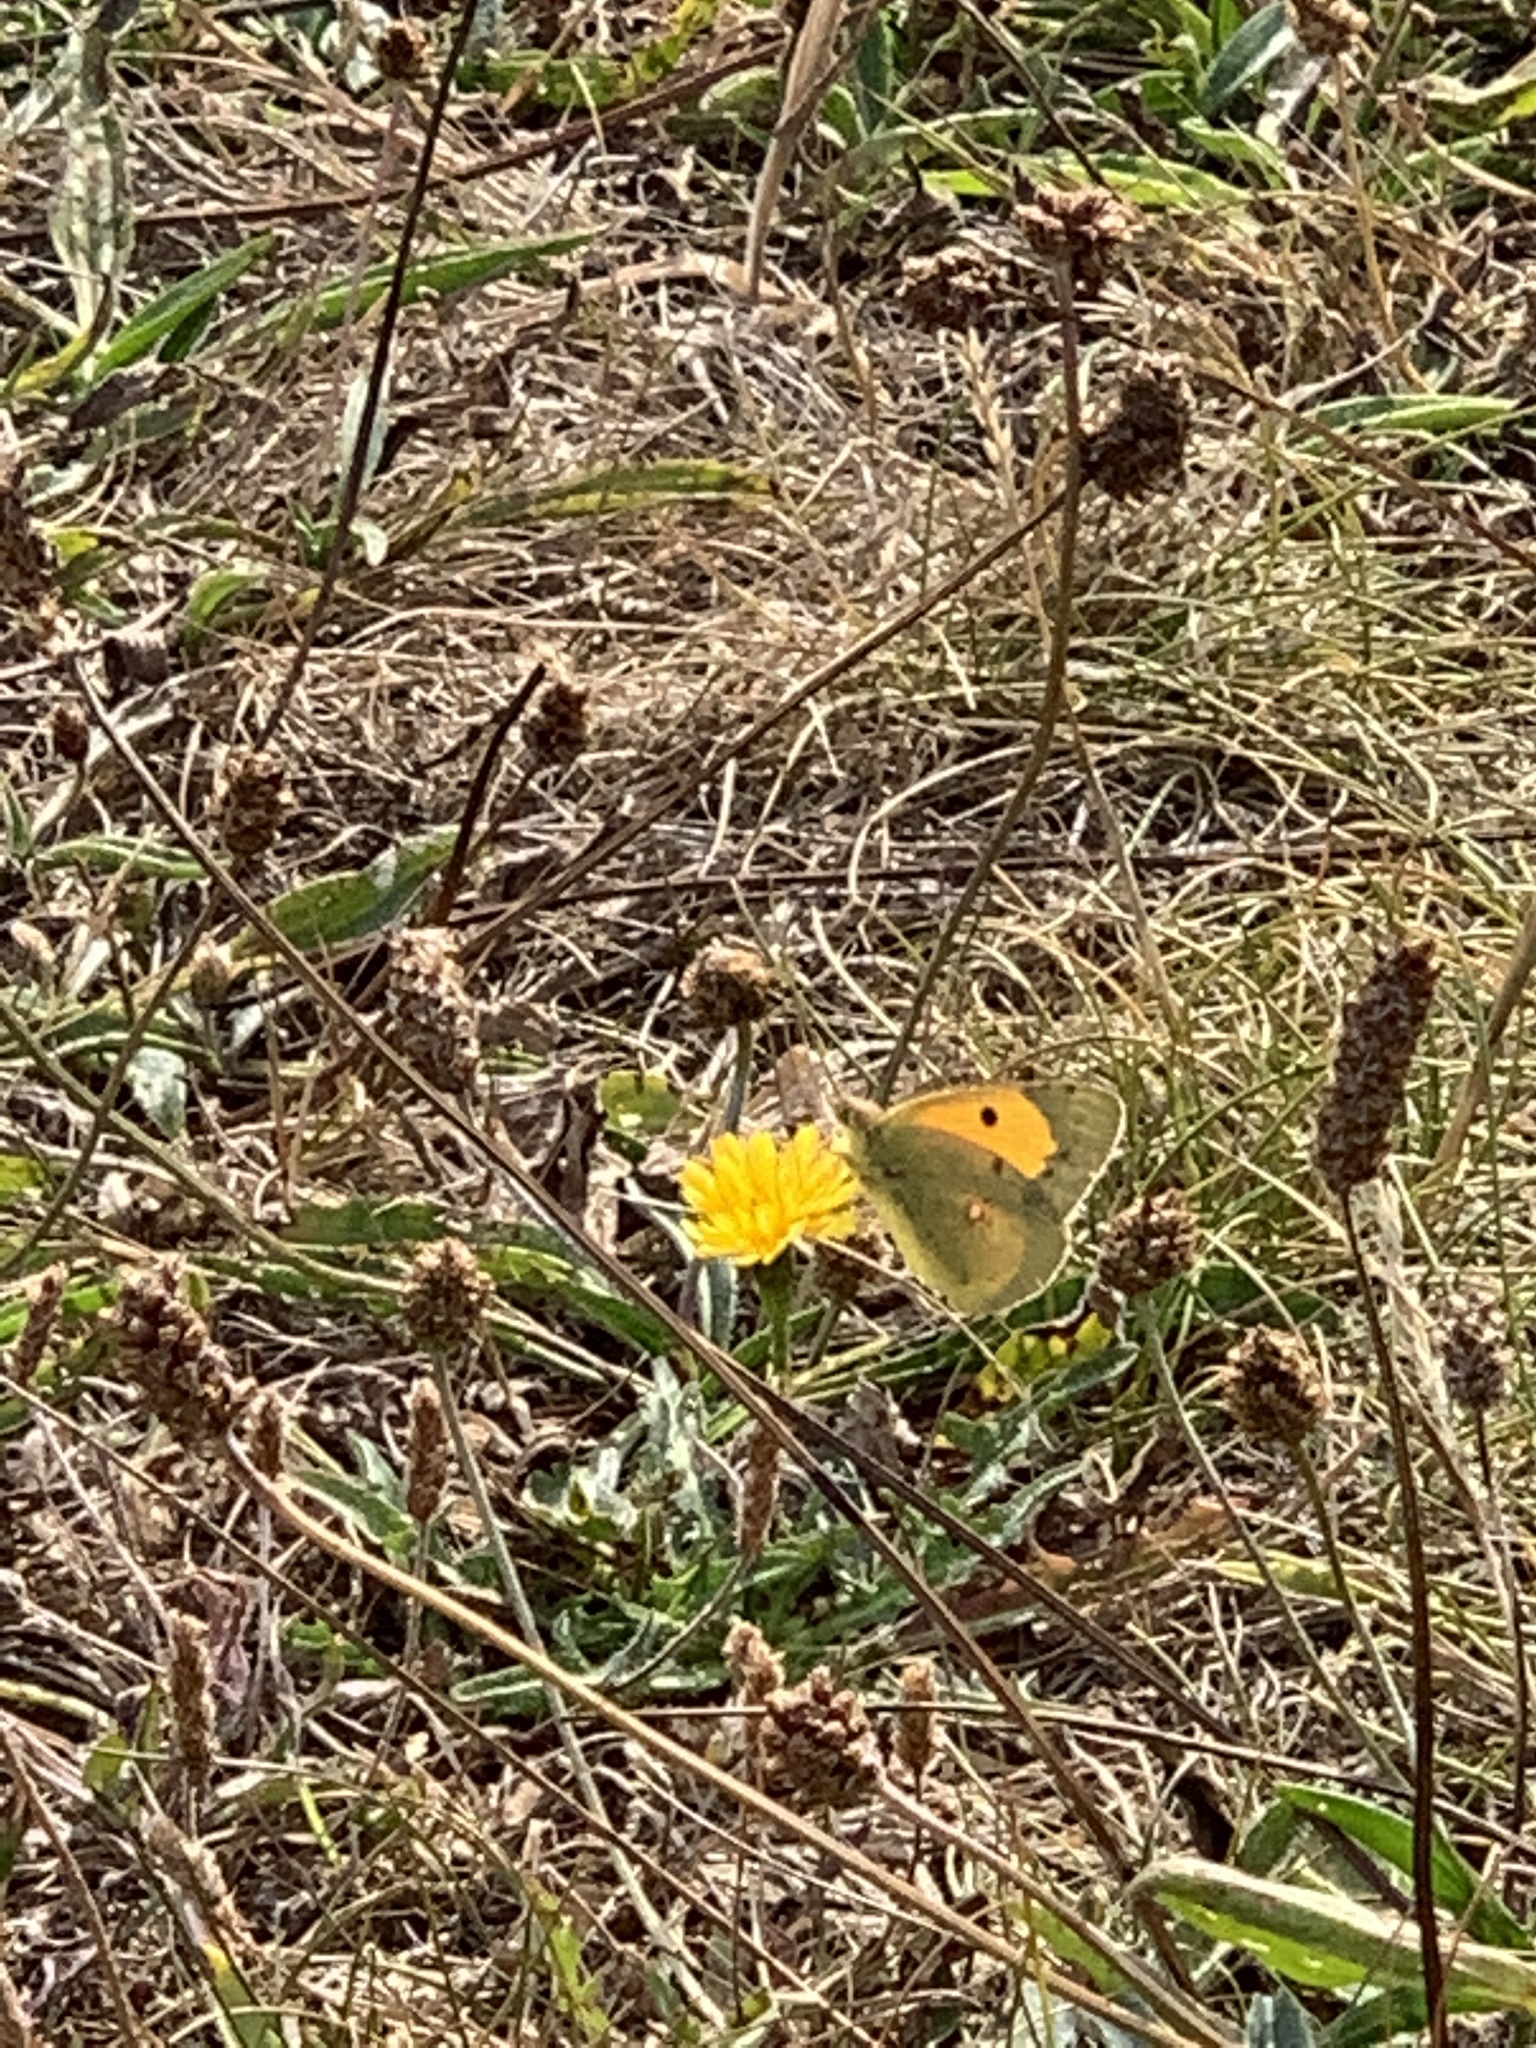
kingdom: Animalia
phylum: Arthropoda
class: Insecta
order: Lepidoptera
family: Pieridae
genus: Colias
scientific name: Colias croceus
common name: Clouded yellow
